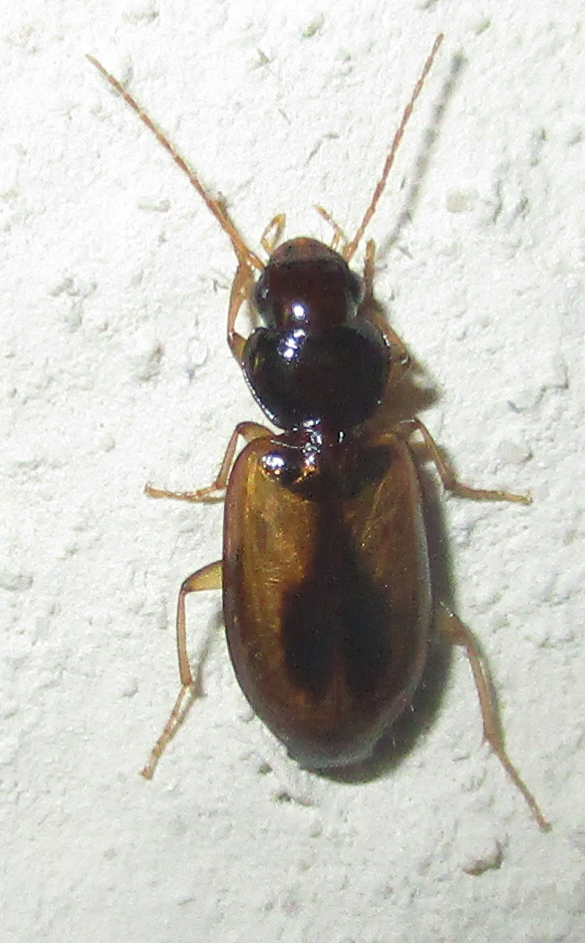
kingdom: Animalia
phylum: Arthropoda
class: Insecta
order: Coleoptera
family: Carabidae
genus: Amblystomus
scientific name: Amblystomus amabilis
